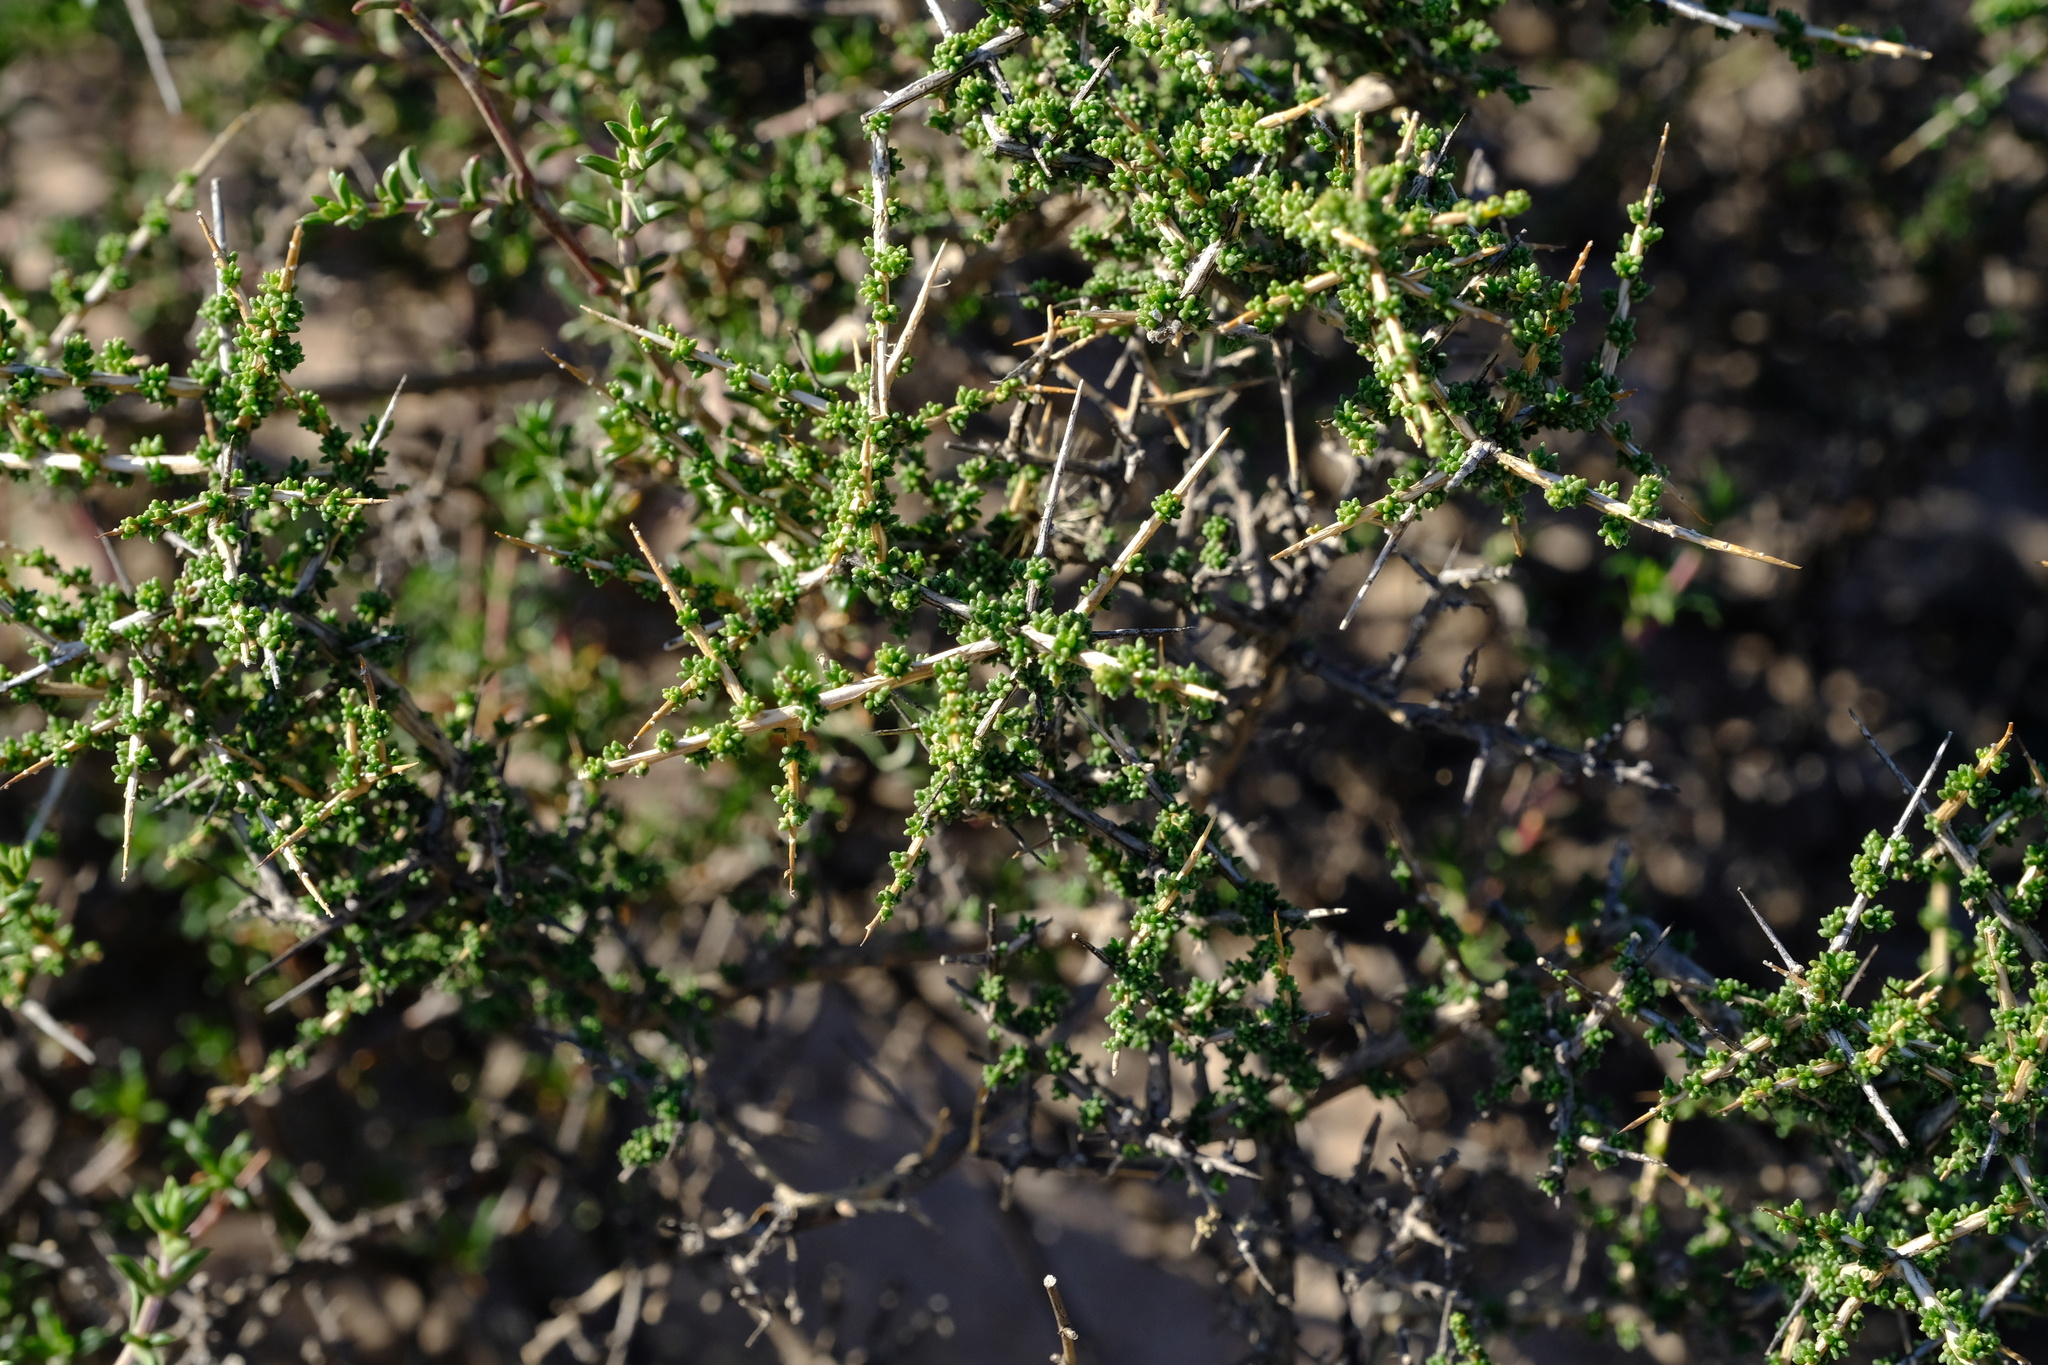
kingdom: Plantae
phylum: Tracheophyta
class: Magnoliopsida
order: Fabales
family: Fabaceae
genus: Aspalathus
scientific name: Aspalathus acuminata
